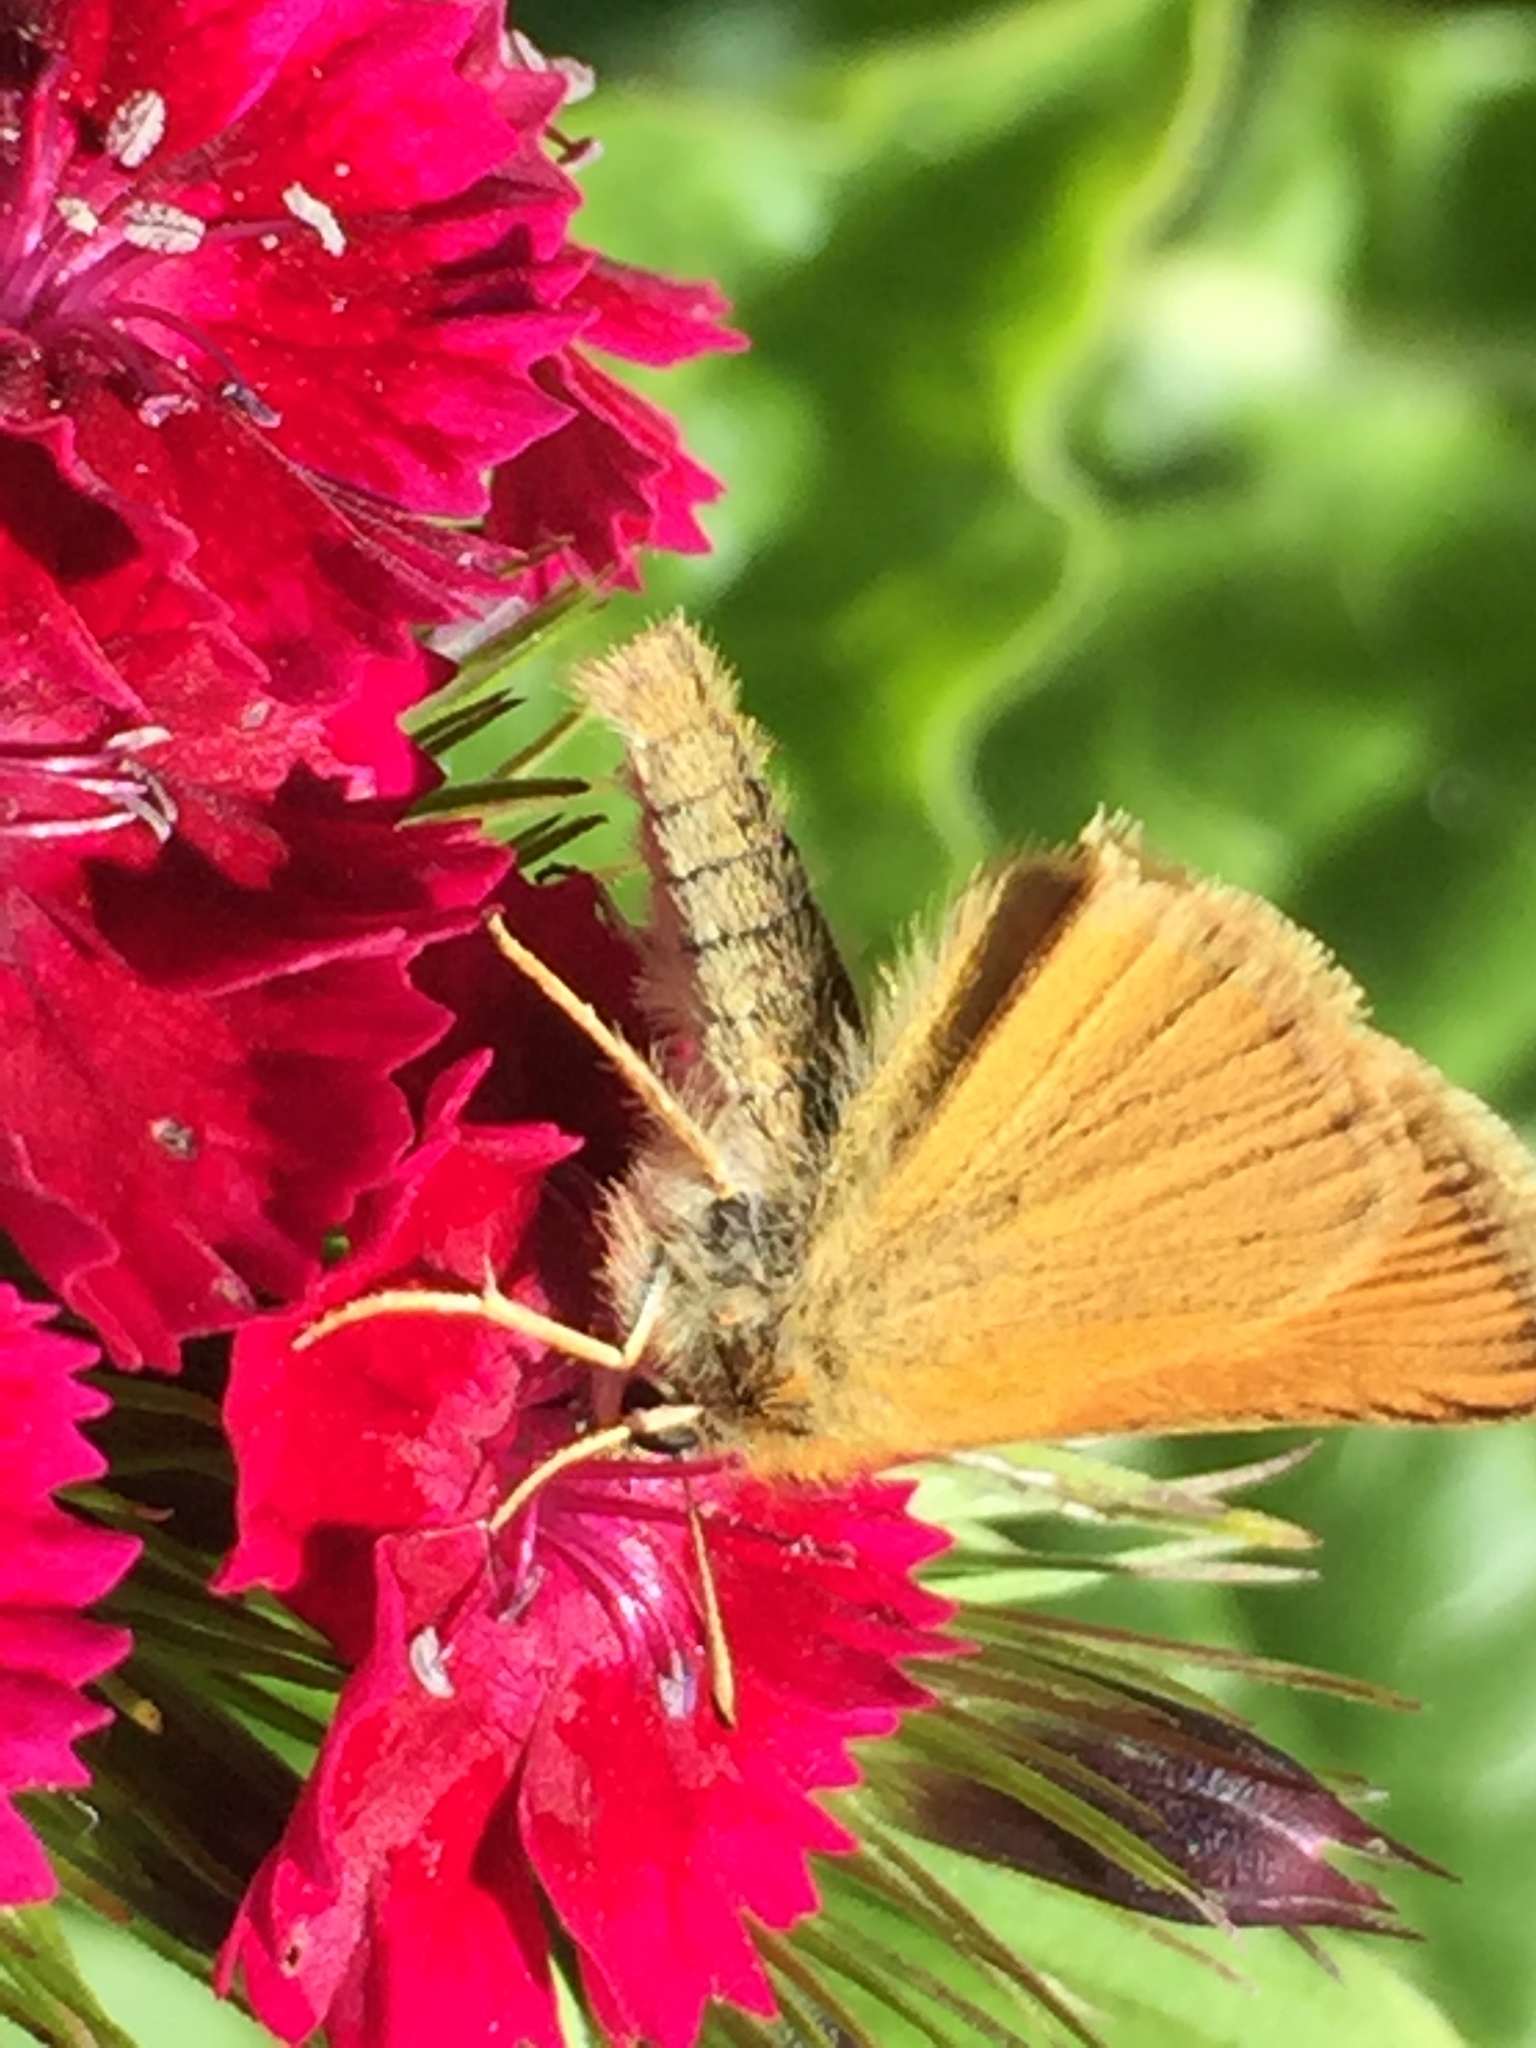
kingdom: Animalia
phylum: Arthropoda
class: Insecta
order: Lepidoptera
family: Hesperiidae
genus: Thymelicus
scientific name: Thymelicus lineola
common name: Essex skipper
